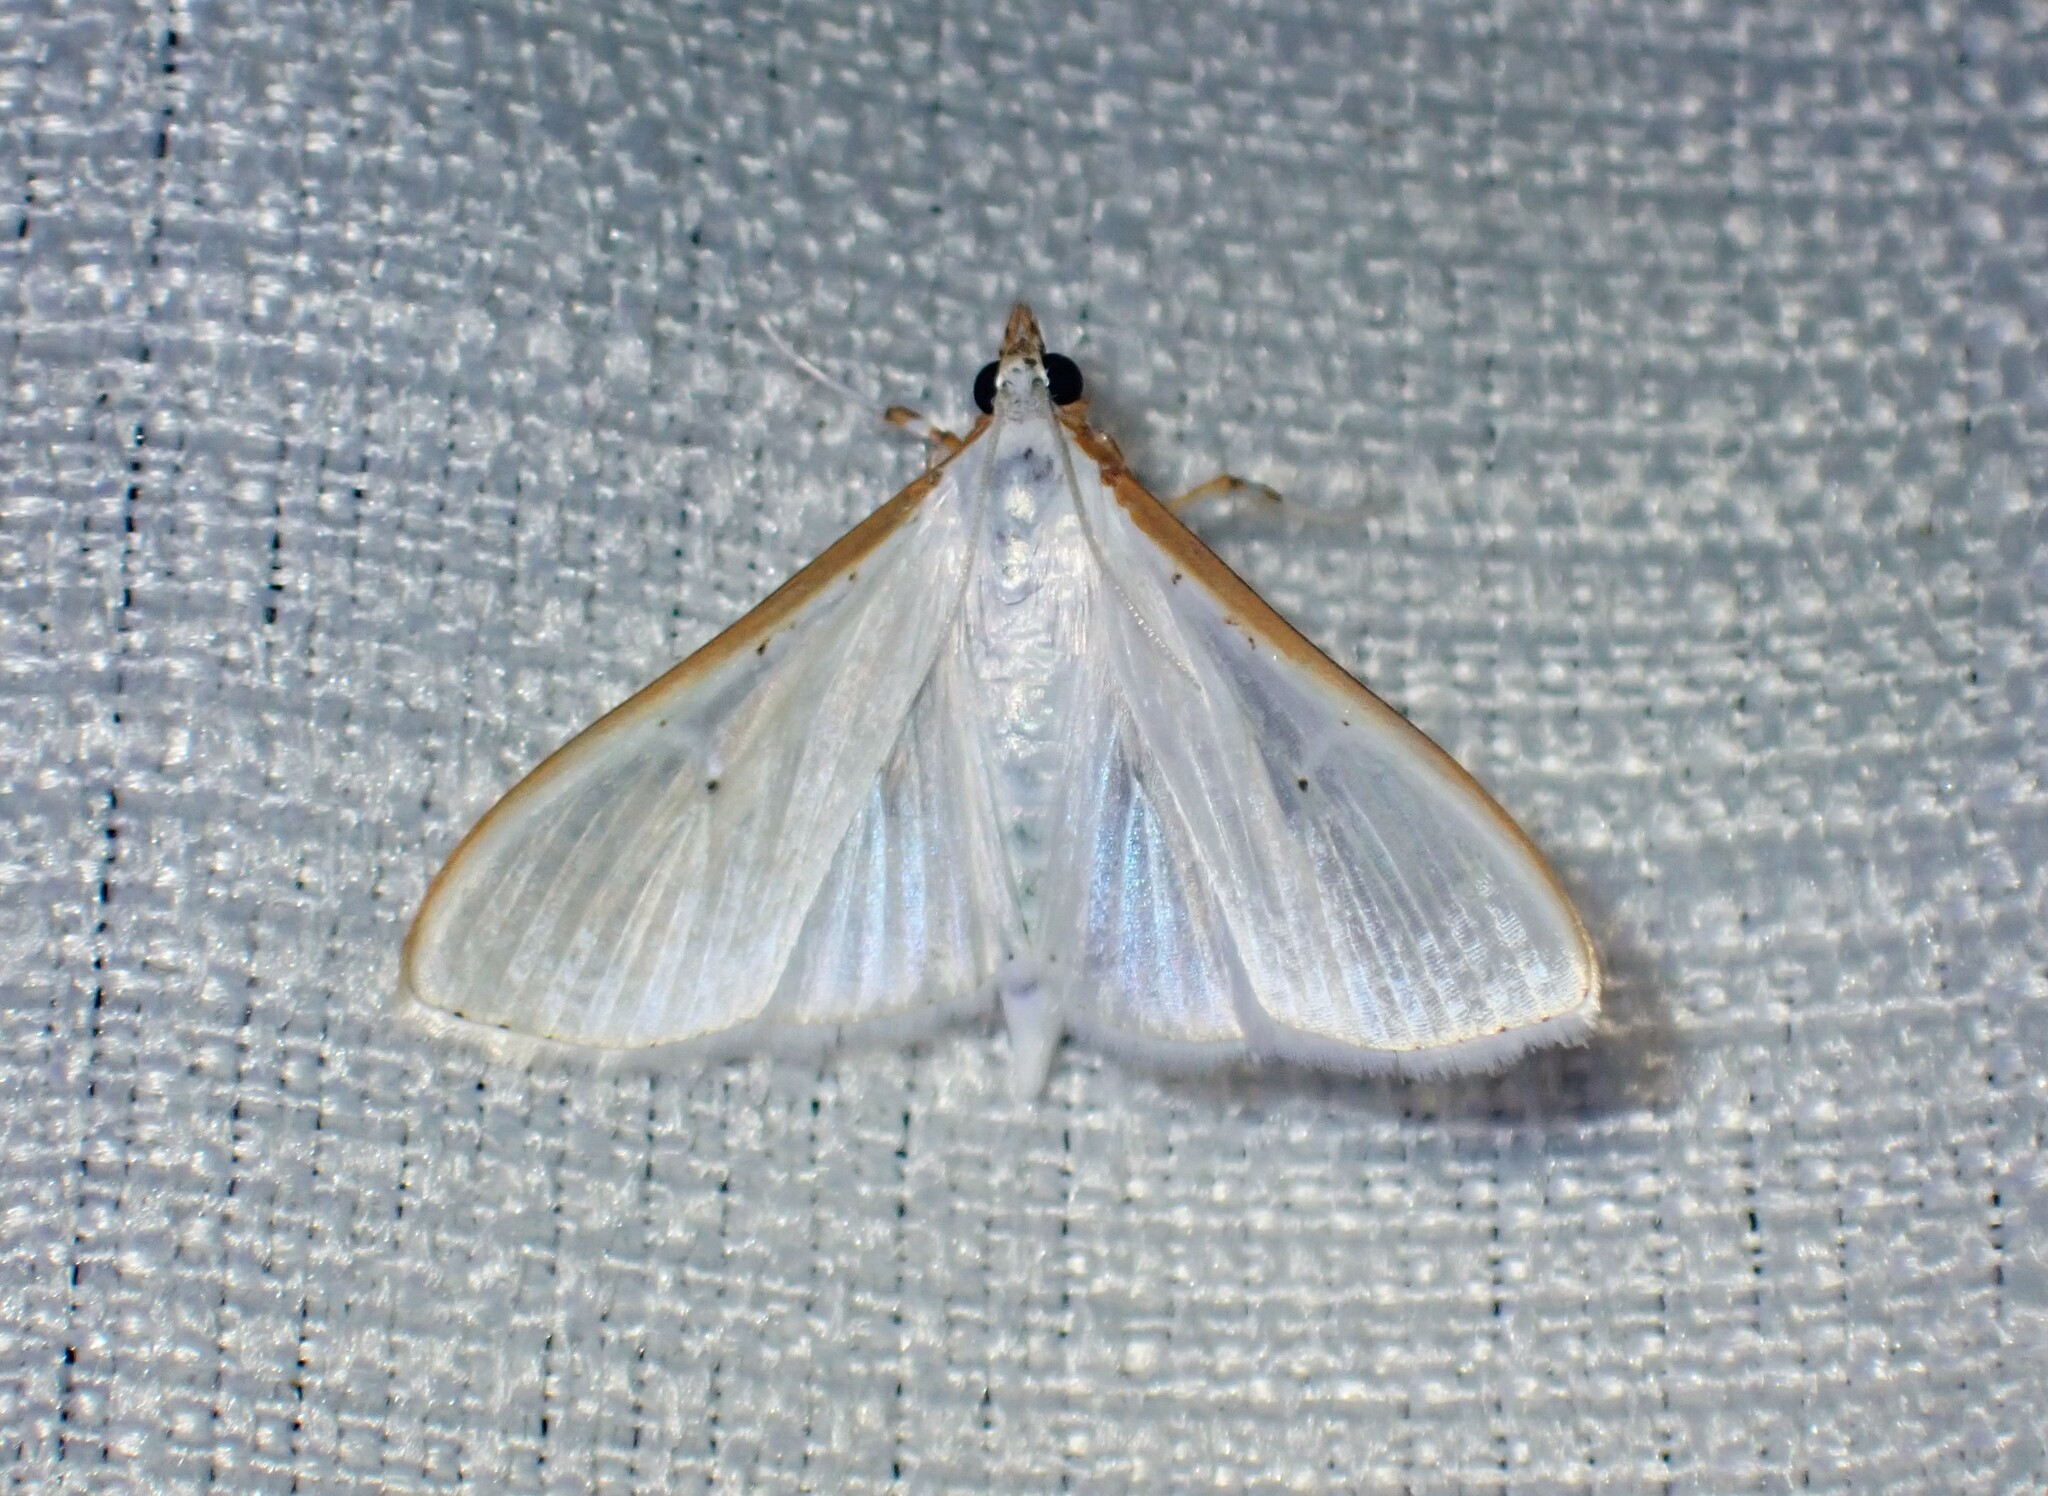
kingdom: Animalia
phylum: Arthropoda
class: Insecta
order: Lepidoptera
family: Crambidae
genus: Palpita
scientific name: Palpita vitrealis
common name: Olive-tree pearl
